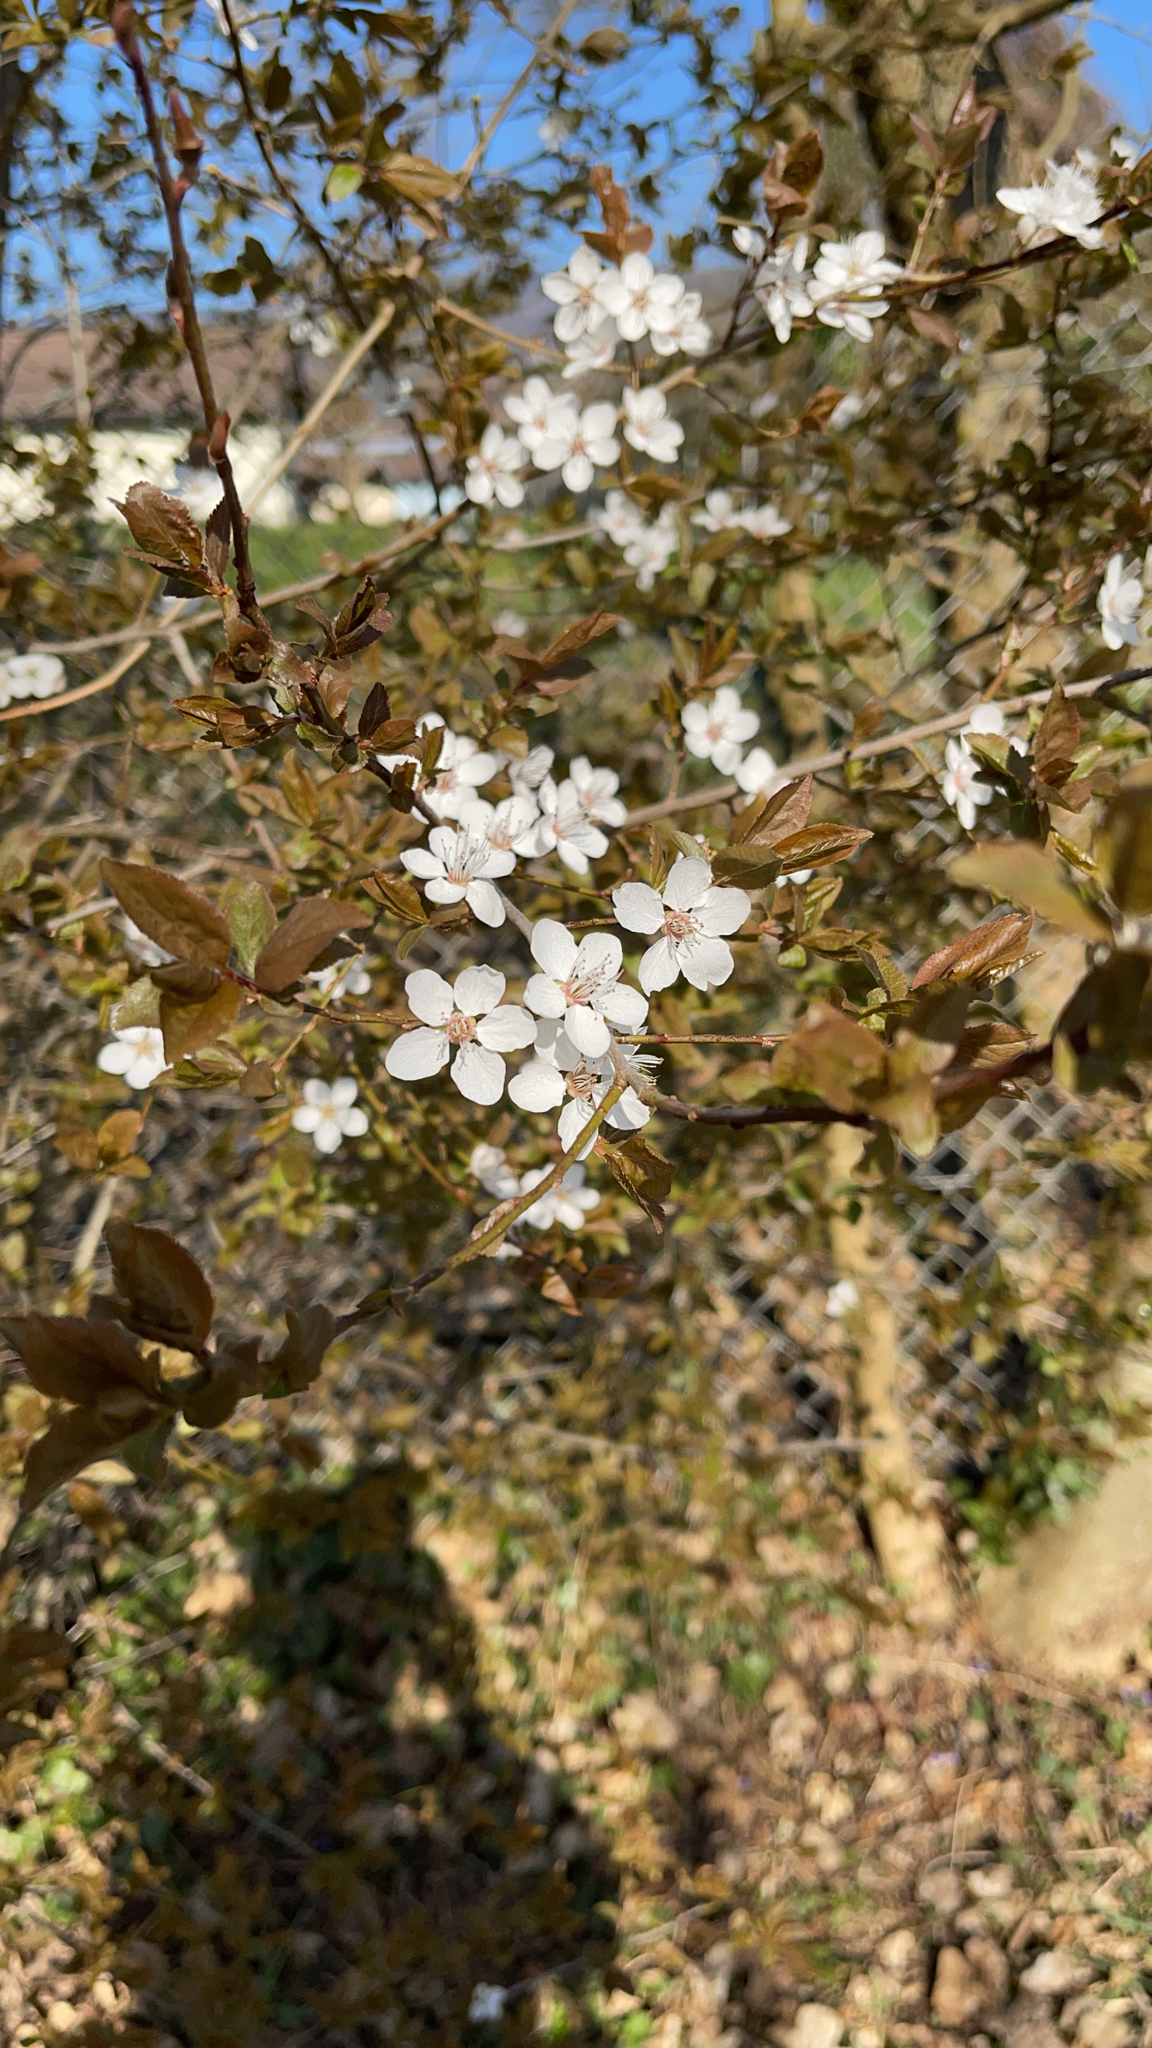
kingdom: Plantae
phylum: Tracheophyta
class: Magnoliopsida
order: Rosales
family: Rosaceae
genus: Prunus
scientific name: Prunus cerasifera
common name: Cherry plum
